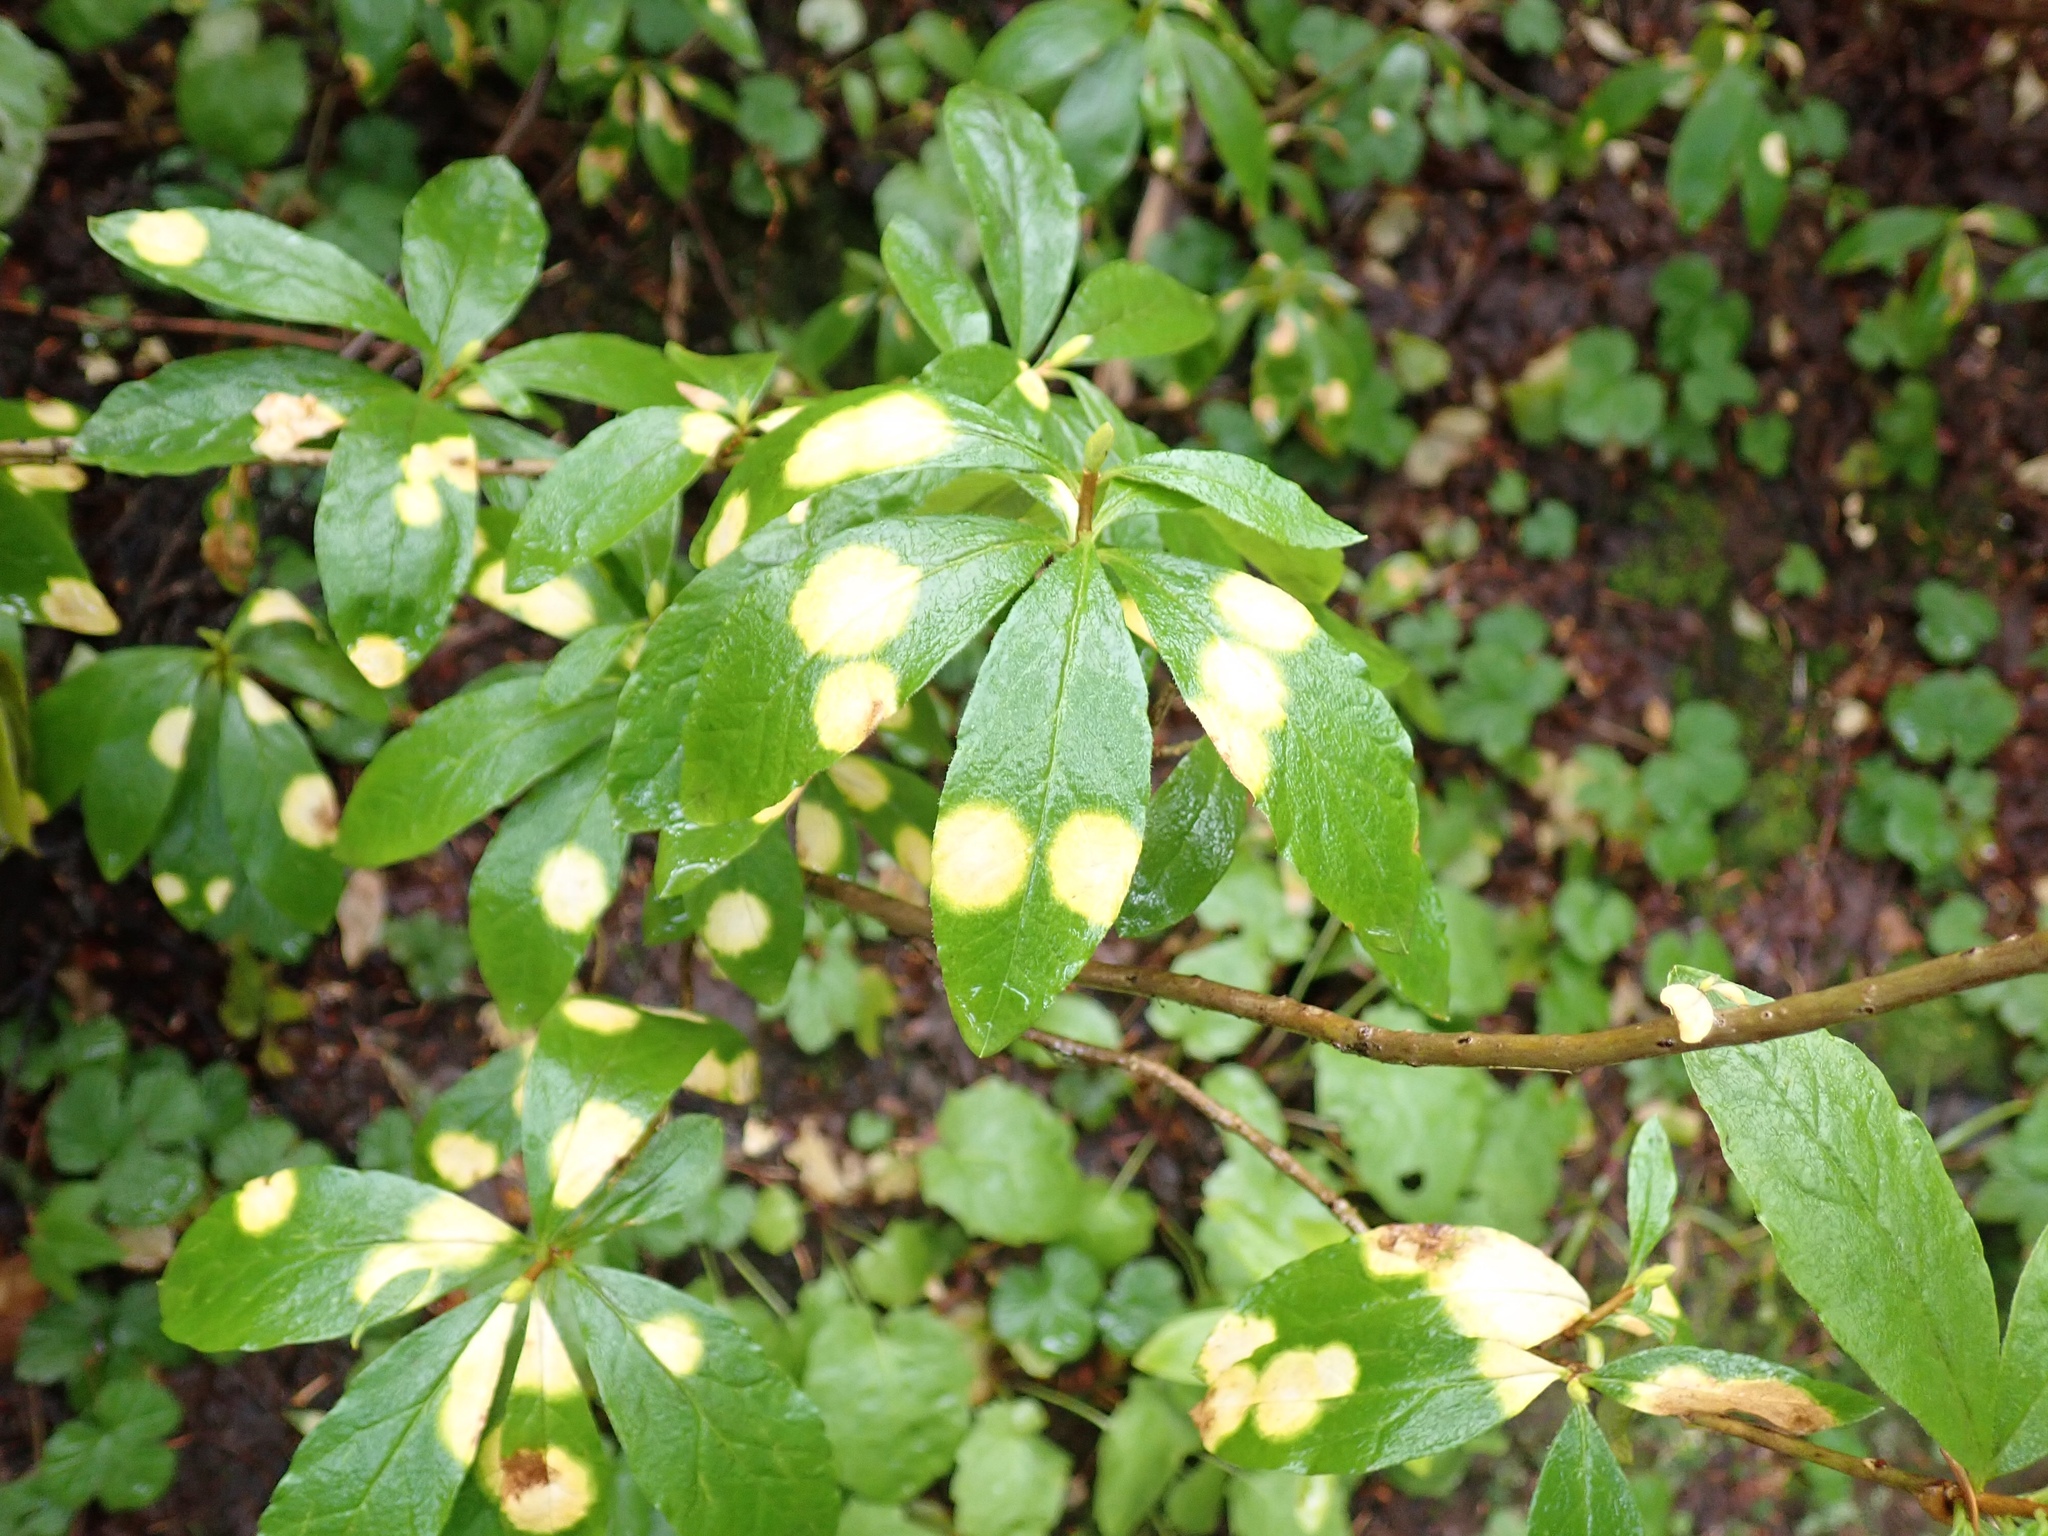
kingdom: Plantae
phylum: Tracheophyta
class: Magnoliopsida
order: Ericales
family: Ericaceae
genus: Rhododendron
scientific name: Rhododendron albiflorum
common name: White rhododendron
